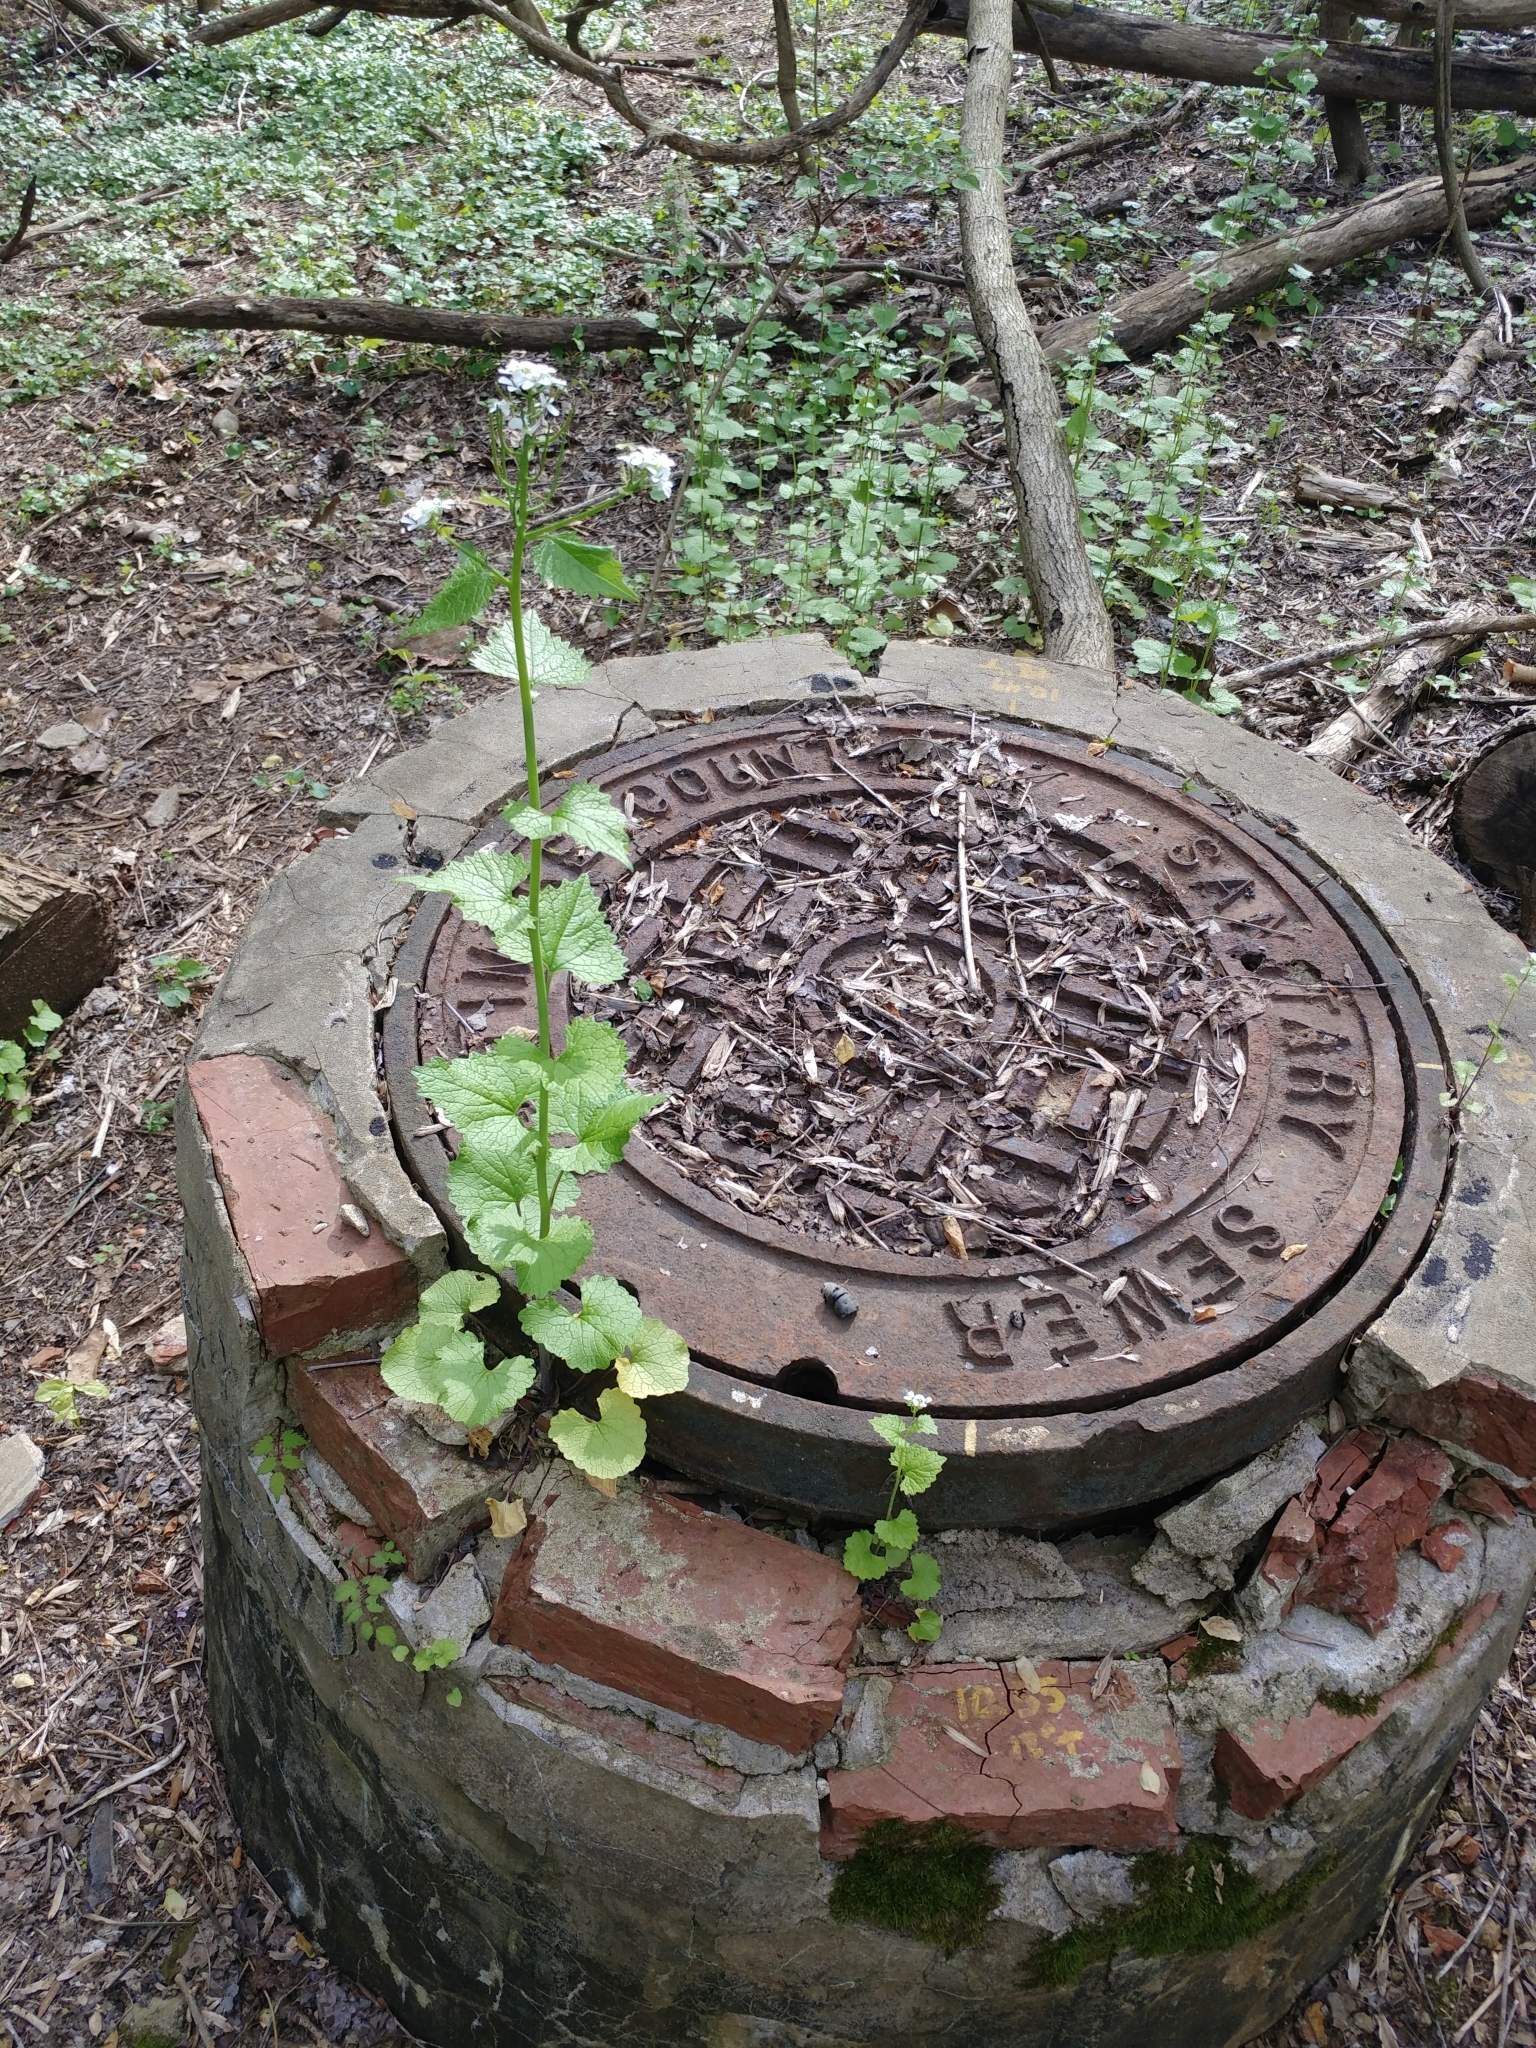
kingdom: Plantae
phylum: Tracheophyta
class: Magnoliopsida
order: Brassicales
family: Brassicaceae
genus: Alliaria
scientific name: Alliaria petiolata
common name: Garlic mustard
